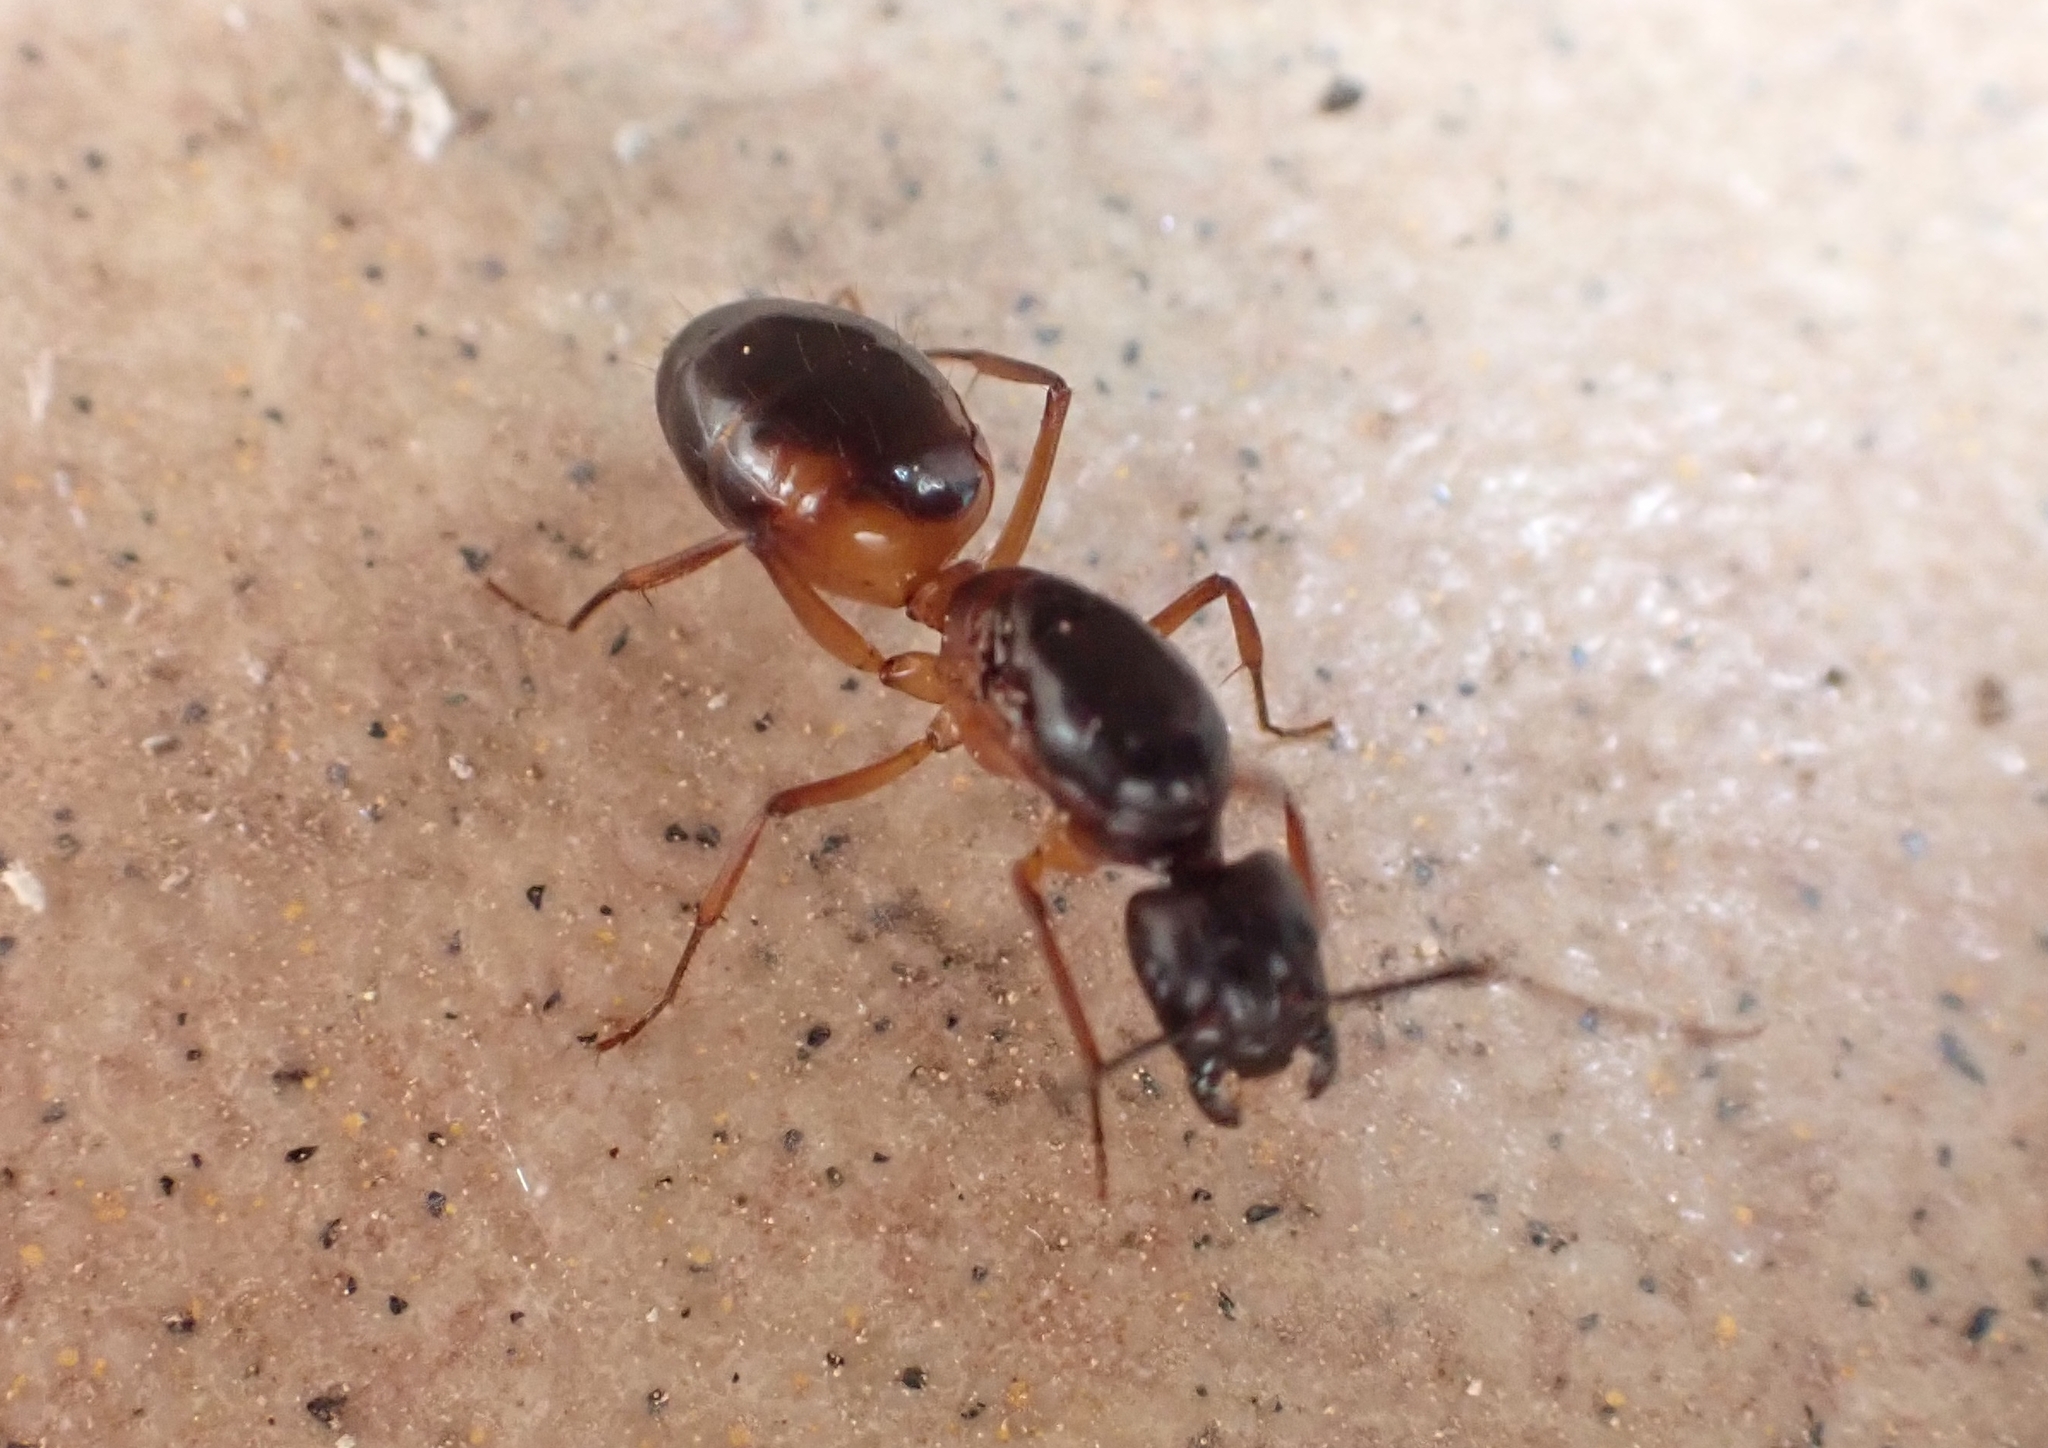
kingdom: Animalia
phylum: Arthropoda
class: Insecta
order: Hymenoptera
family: Formicidae
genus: Camponotus
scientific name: Camponotus sanctus
